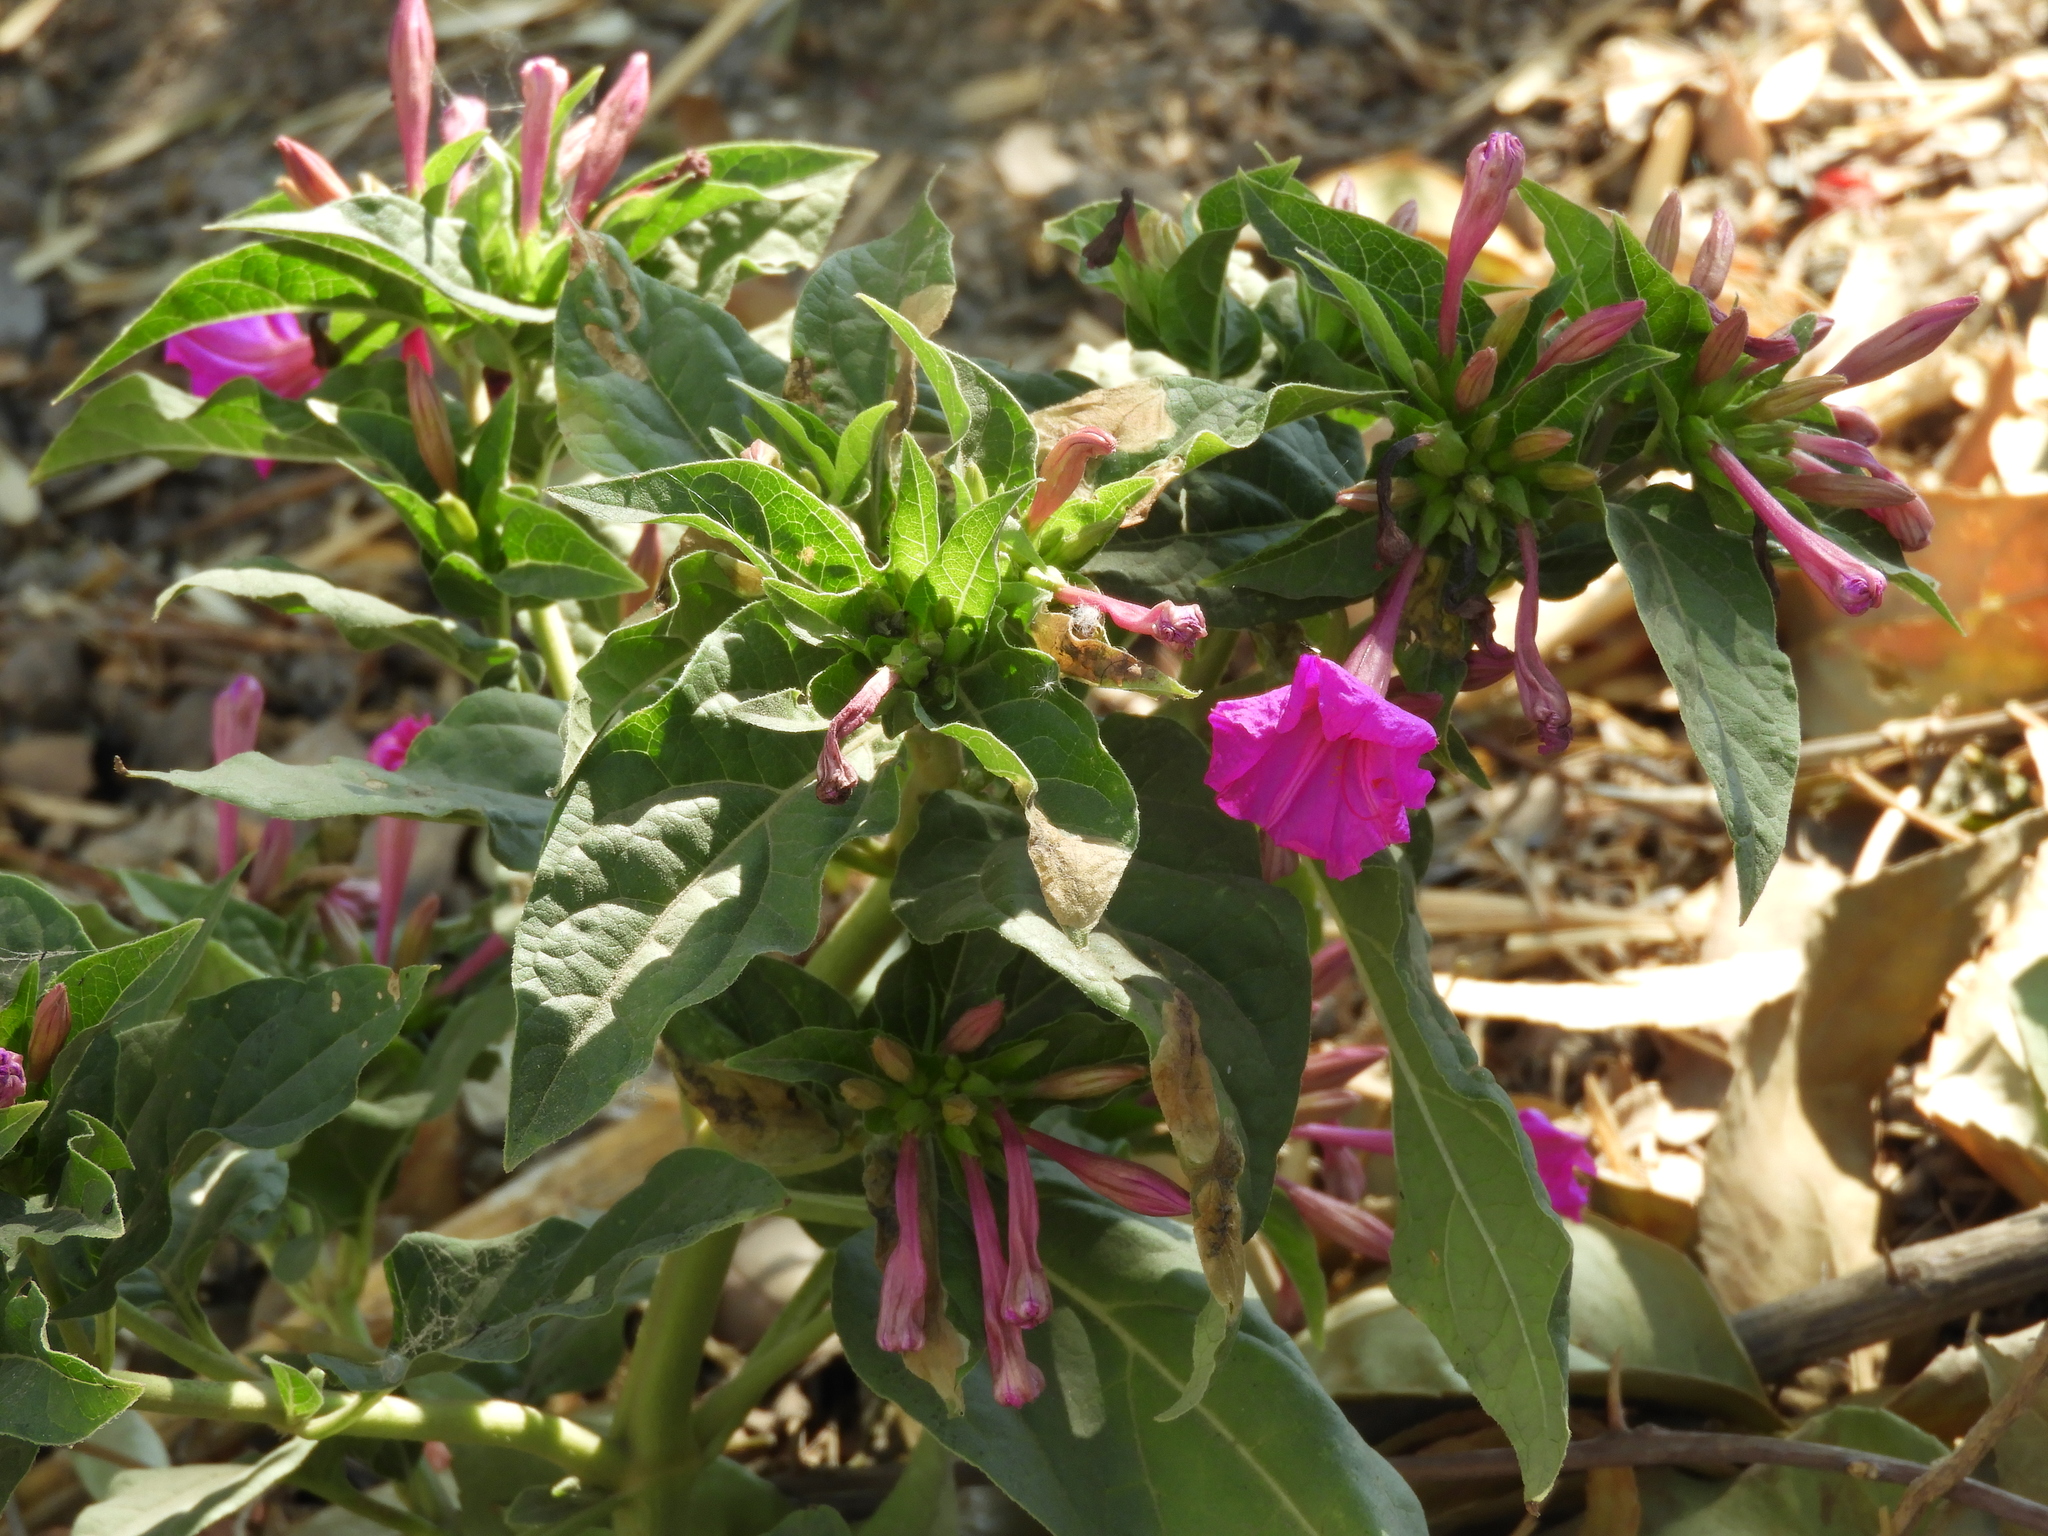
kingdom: Plantae
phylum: Tracheophyta
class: Magnoliopsida
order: Caryophyllales
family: Nyctaginaceae
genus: Mirabilis
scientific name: Mirabilis jalapa
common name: Marvel-of-peru
